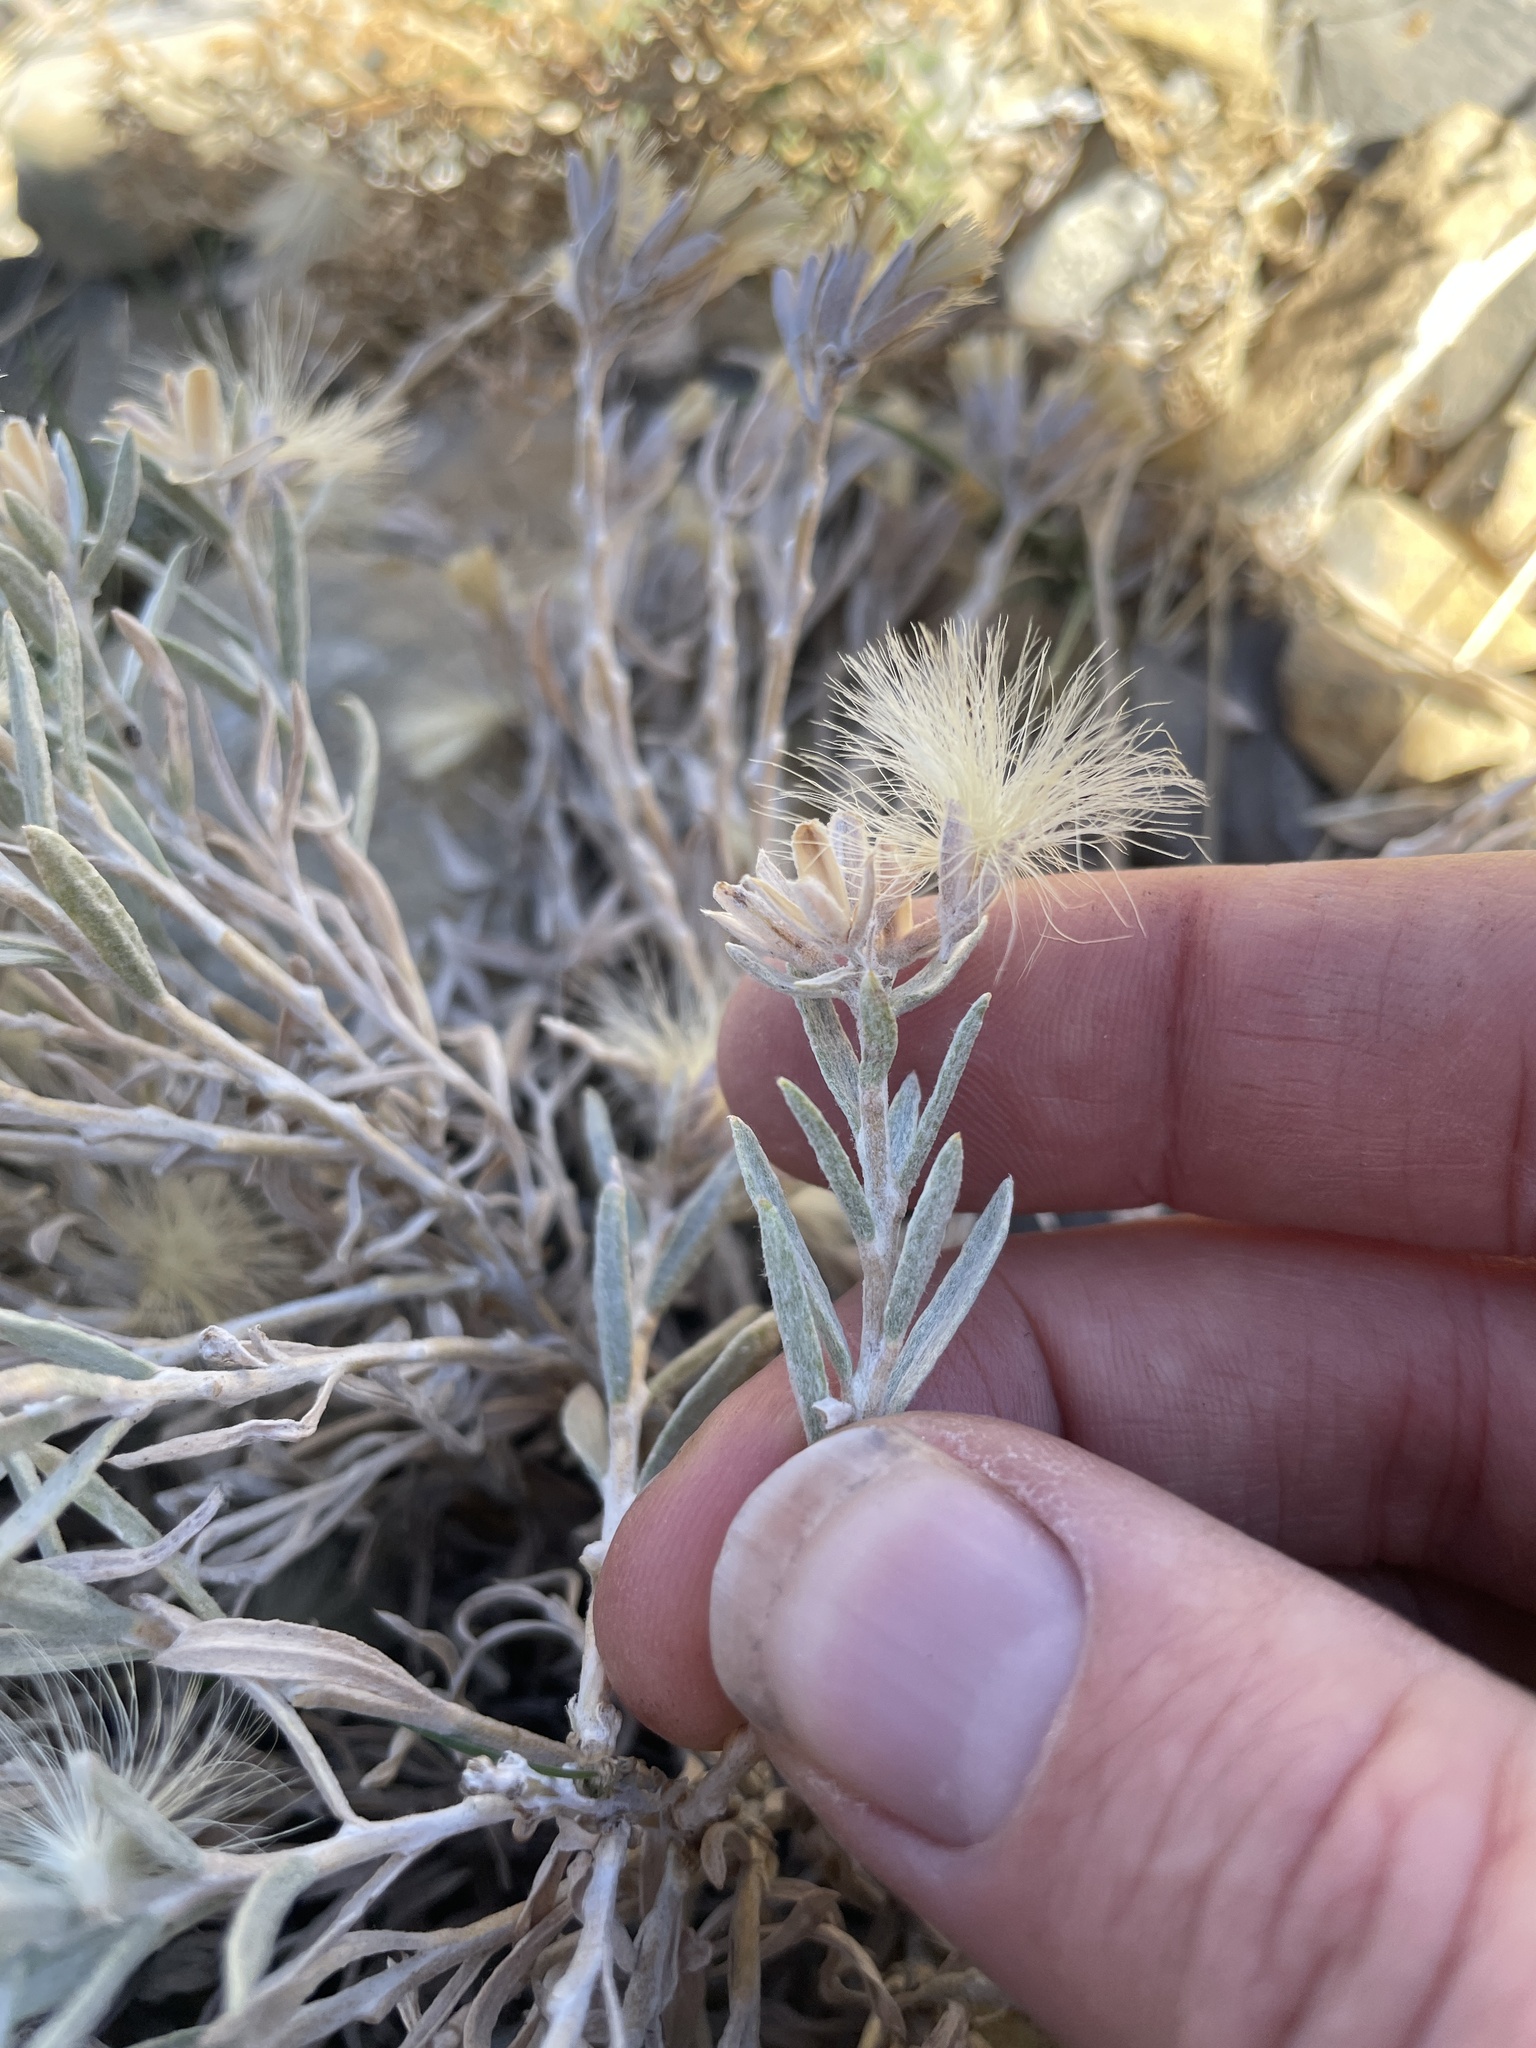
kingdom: Plantae
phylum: Tracheophyta
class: Magnoliopsida
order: Asterales
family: Asteraceae
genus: Tetradymia
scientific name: Tetradymia canescens
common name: Spineless horsebrush
